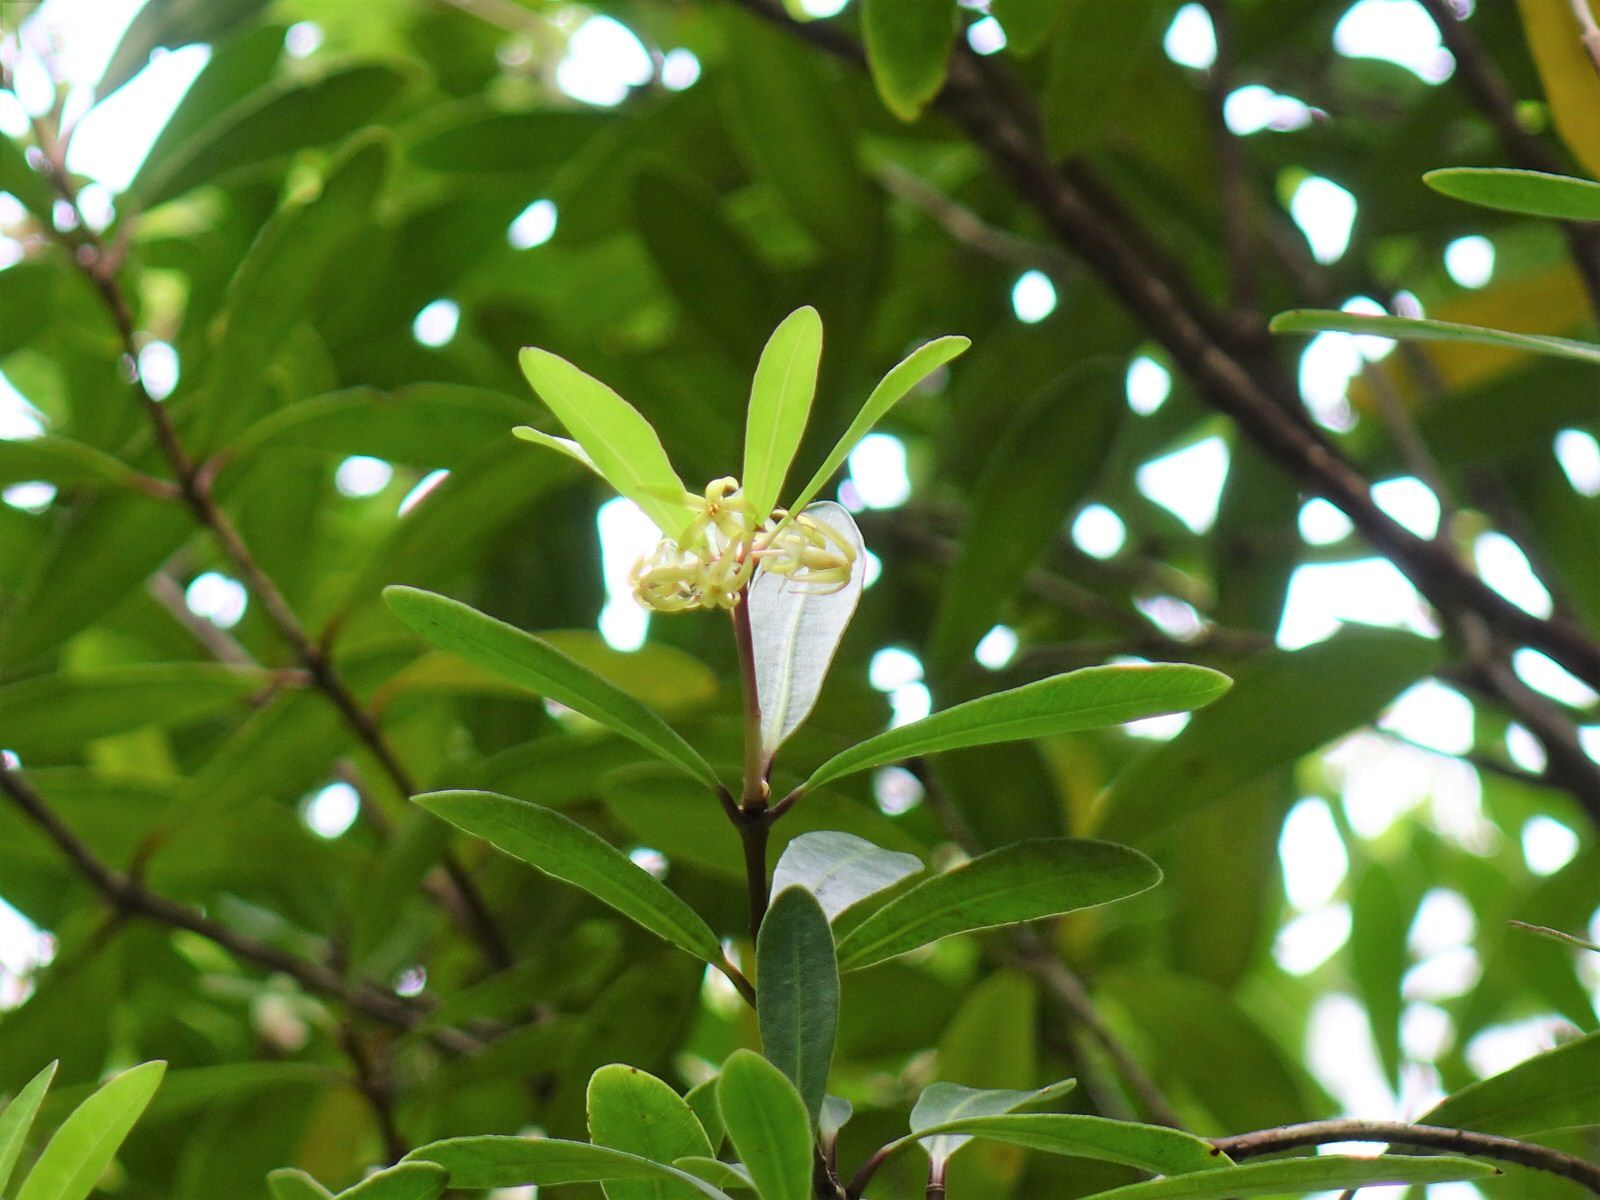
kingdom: Plantae
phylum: Tracheophyta
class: Magnoliopsida
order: Apiales
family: Pittosporaceae
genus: Pittosporum
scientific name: Pittosporum kirkii
